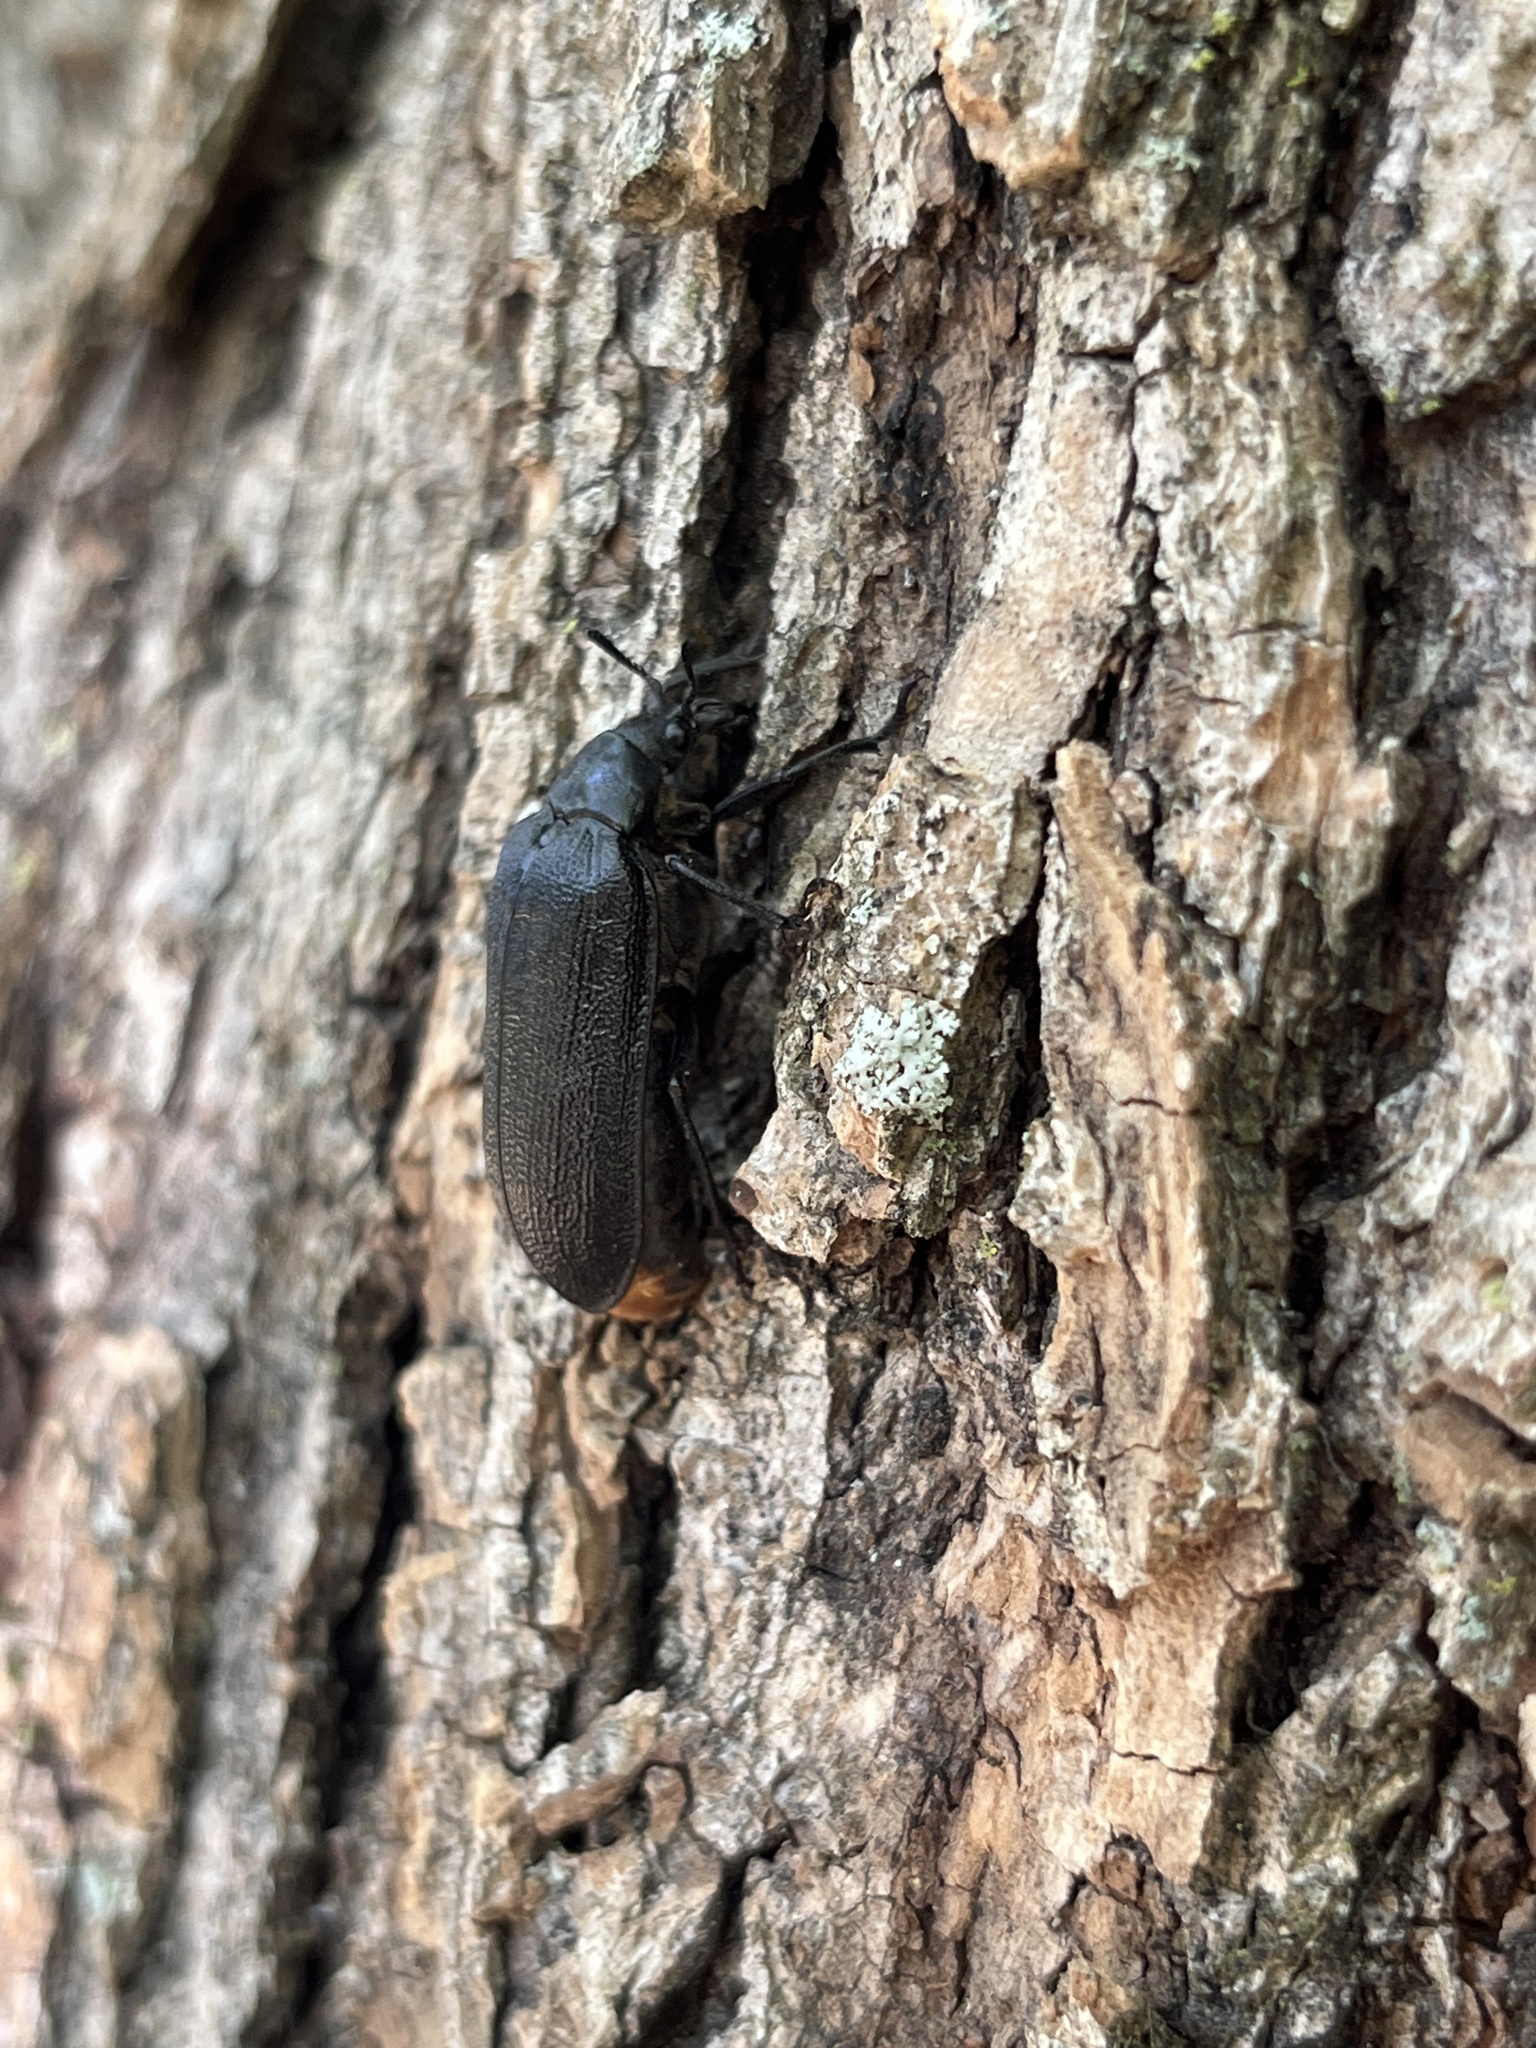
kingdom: Animalia
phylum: Arthropoda
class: Insecta
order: Coleoptera
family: Rhipiceridae
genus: Sandalus
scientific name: Sandalus niger
